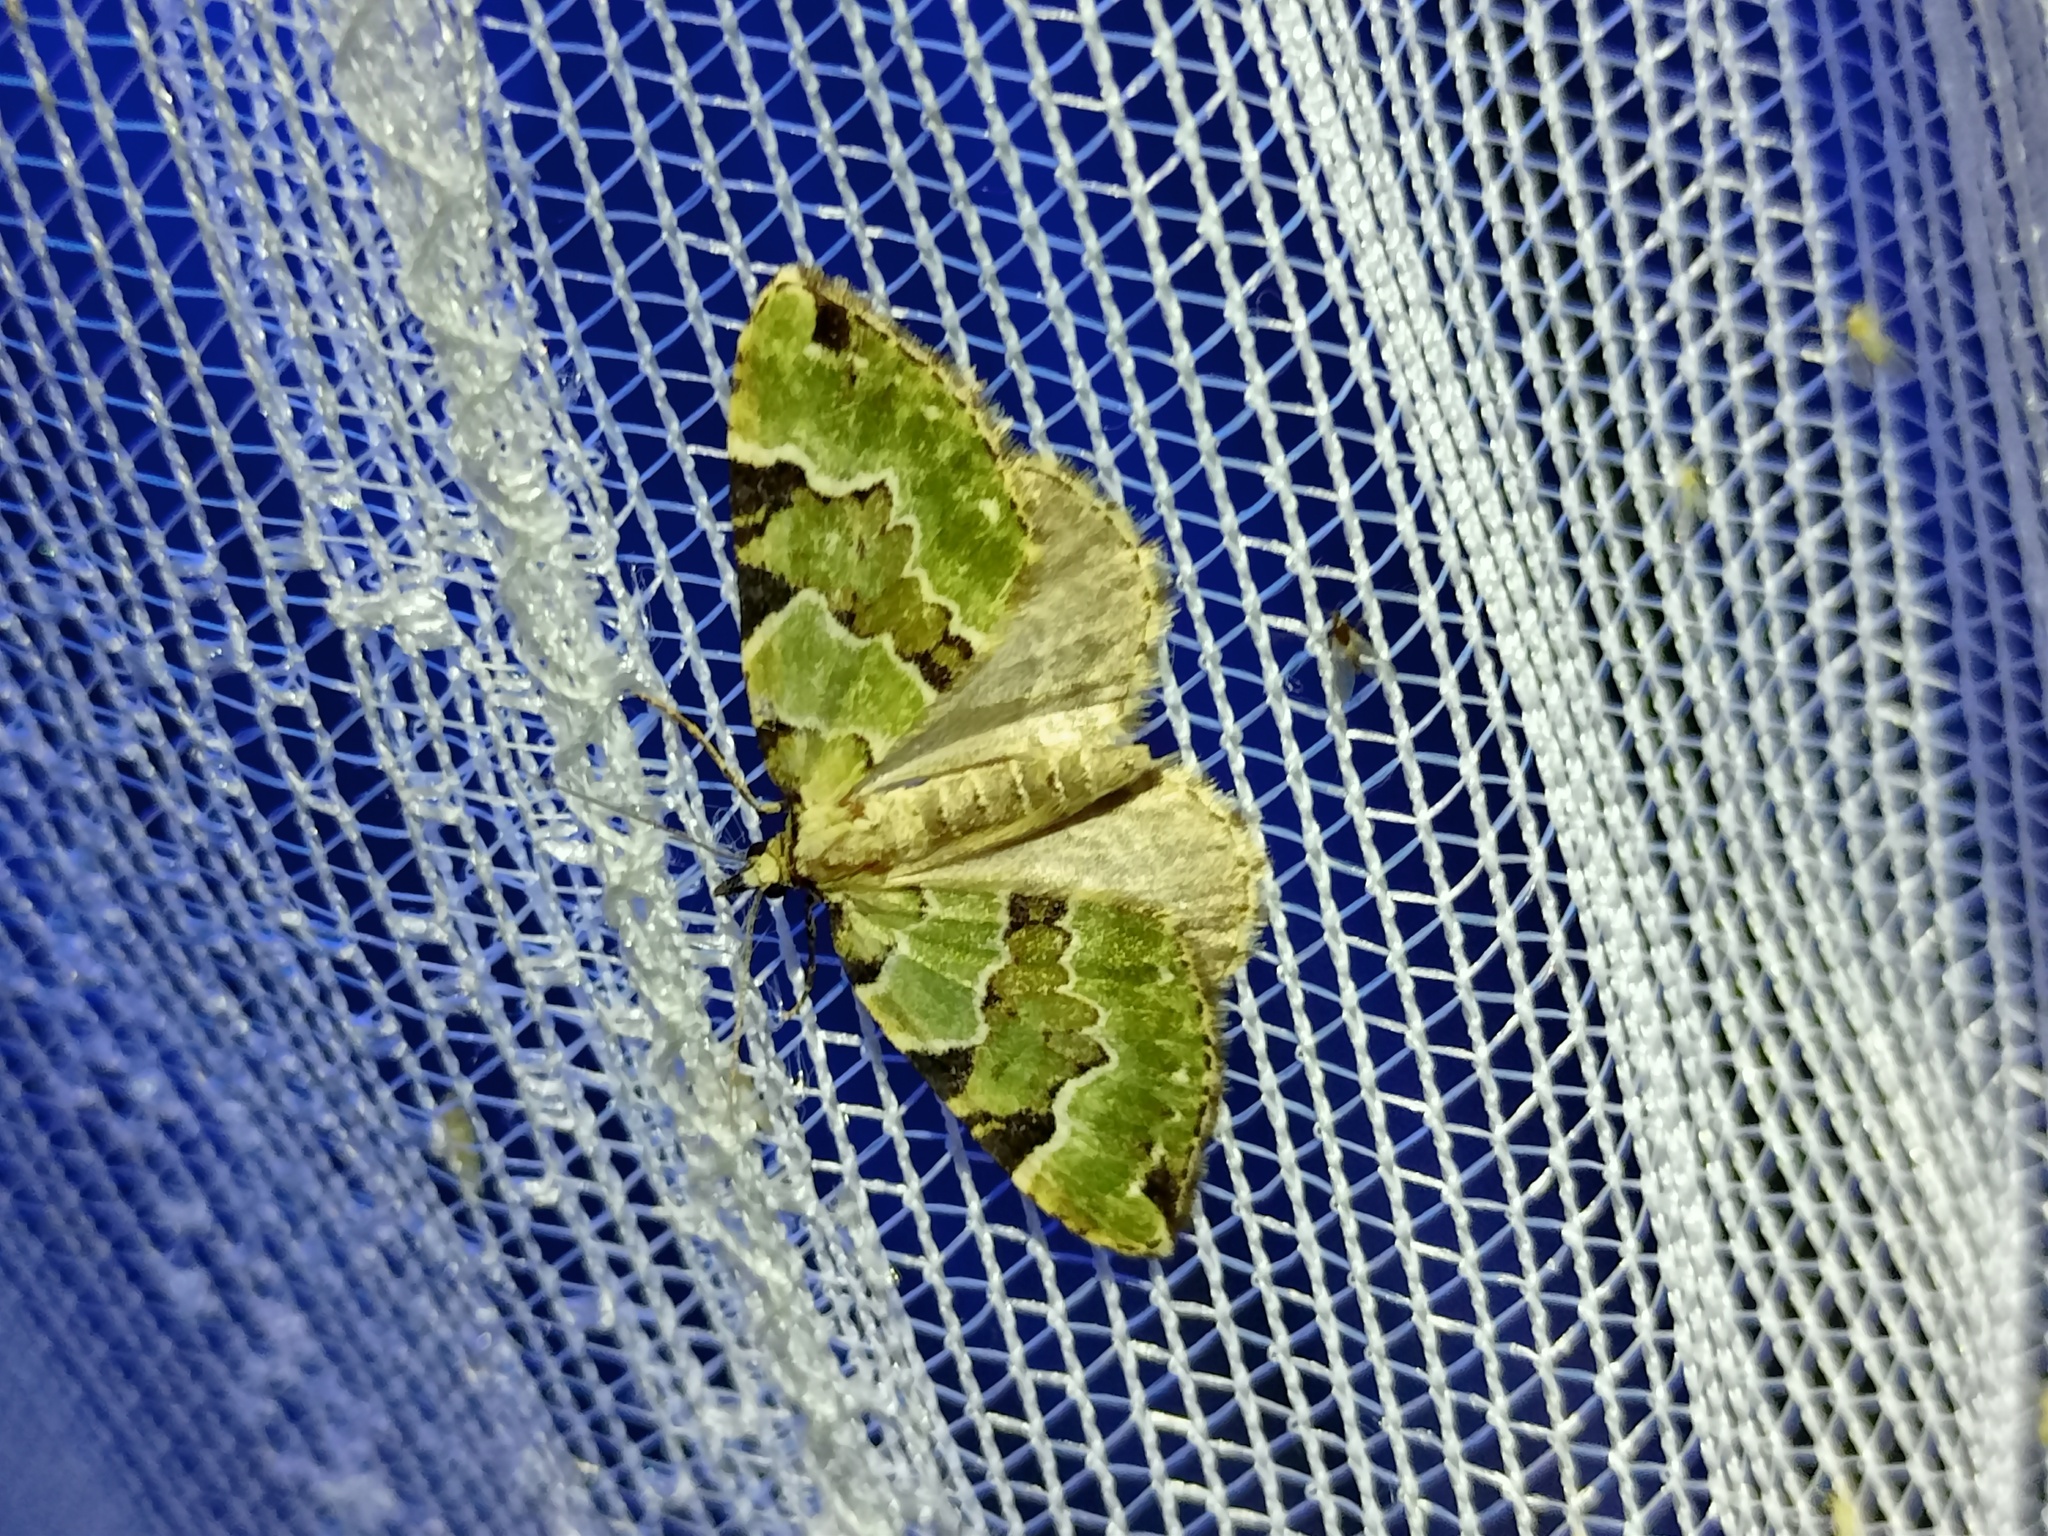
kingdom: Animalia
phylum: Arthropoda
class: Insecta
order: Lepidoptera
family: Geometridae
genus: Colostygia
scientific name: Colostygia pectinataria
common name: Green carpet
